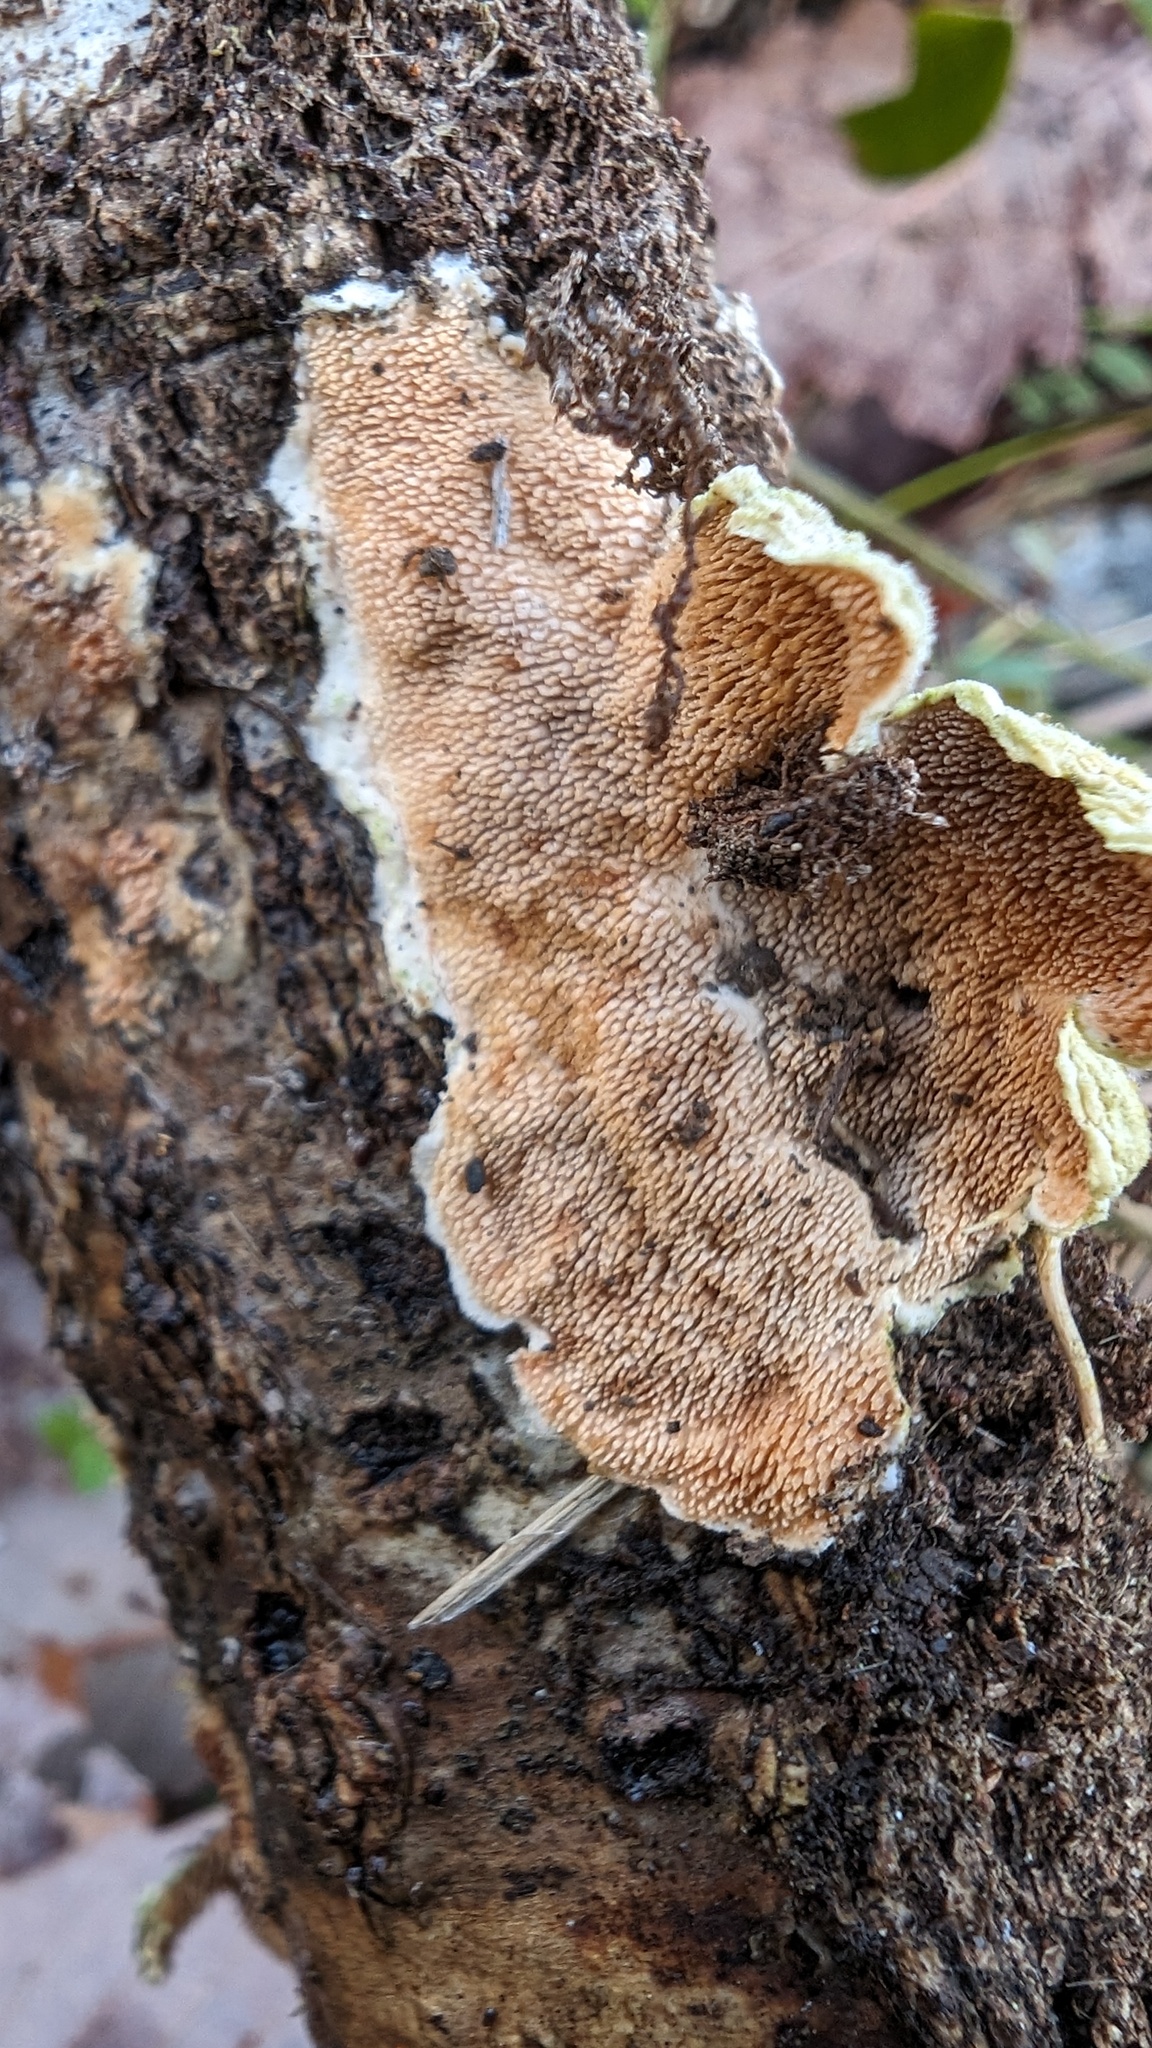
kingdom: Fungi
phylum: Basidiomycota
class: Agaricomycetes
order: Polyporales
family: Steccherinaceae
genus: Steccherinum
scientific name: Steccherinum ochraceum
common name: Ochre spreading tooth
